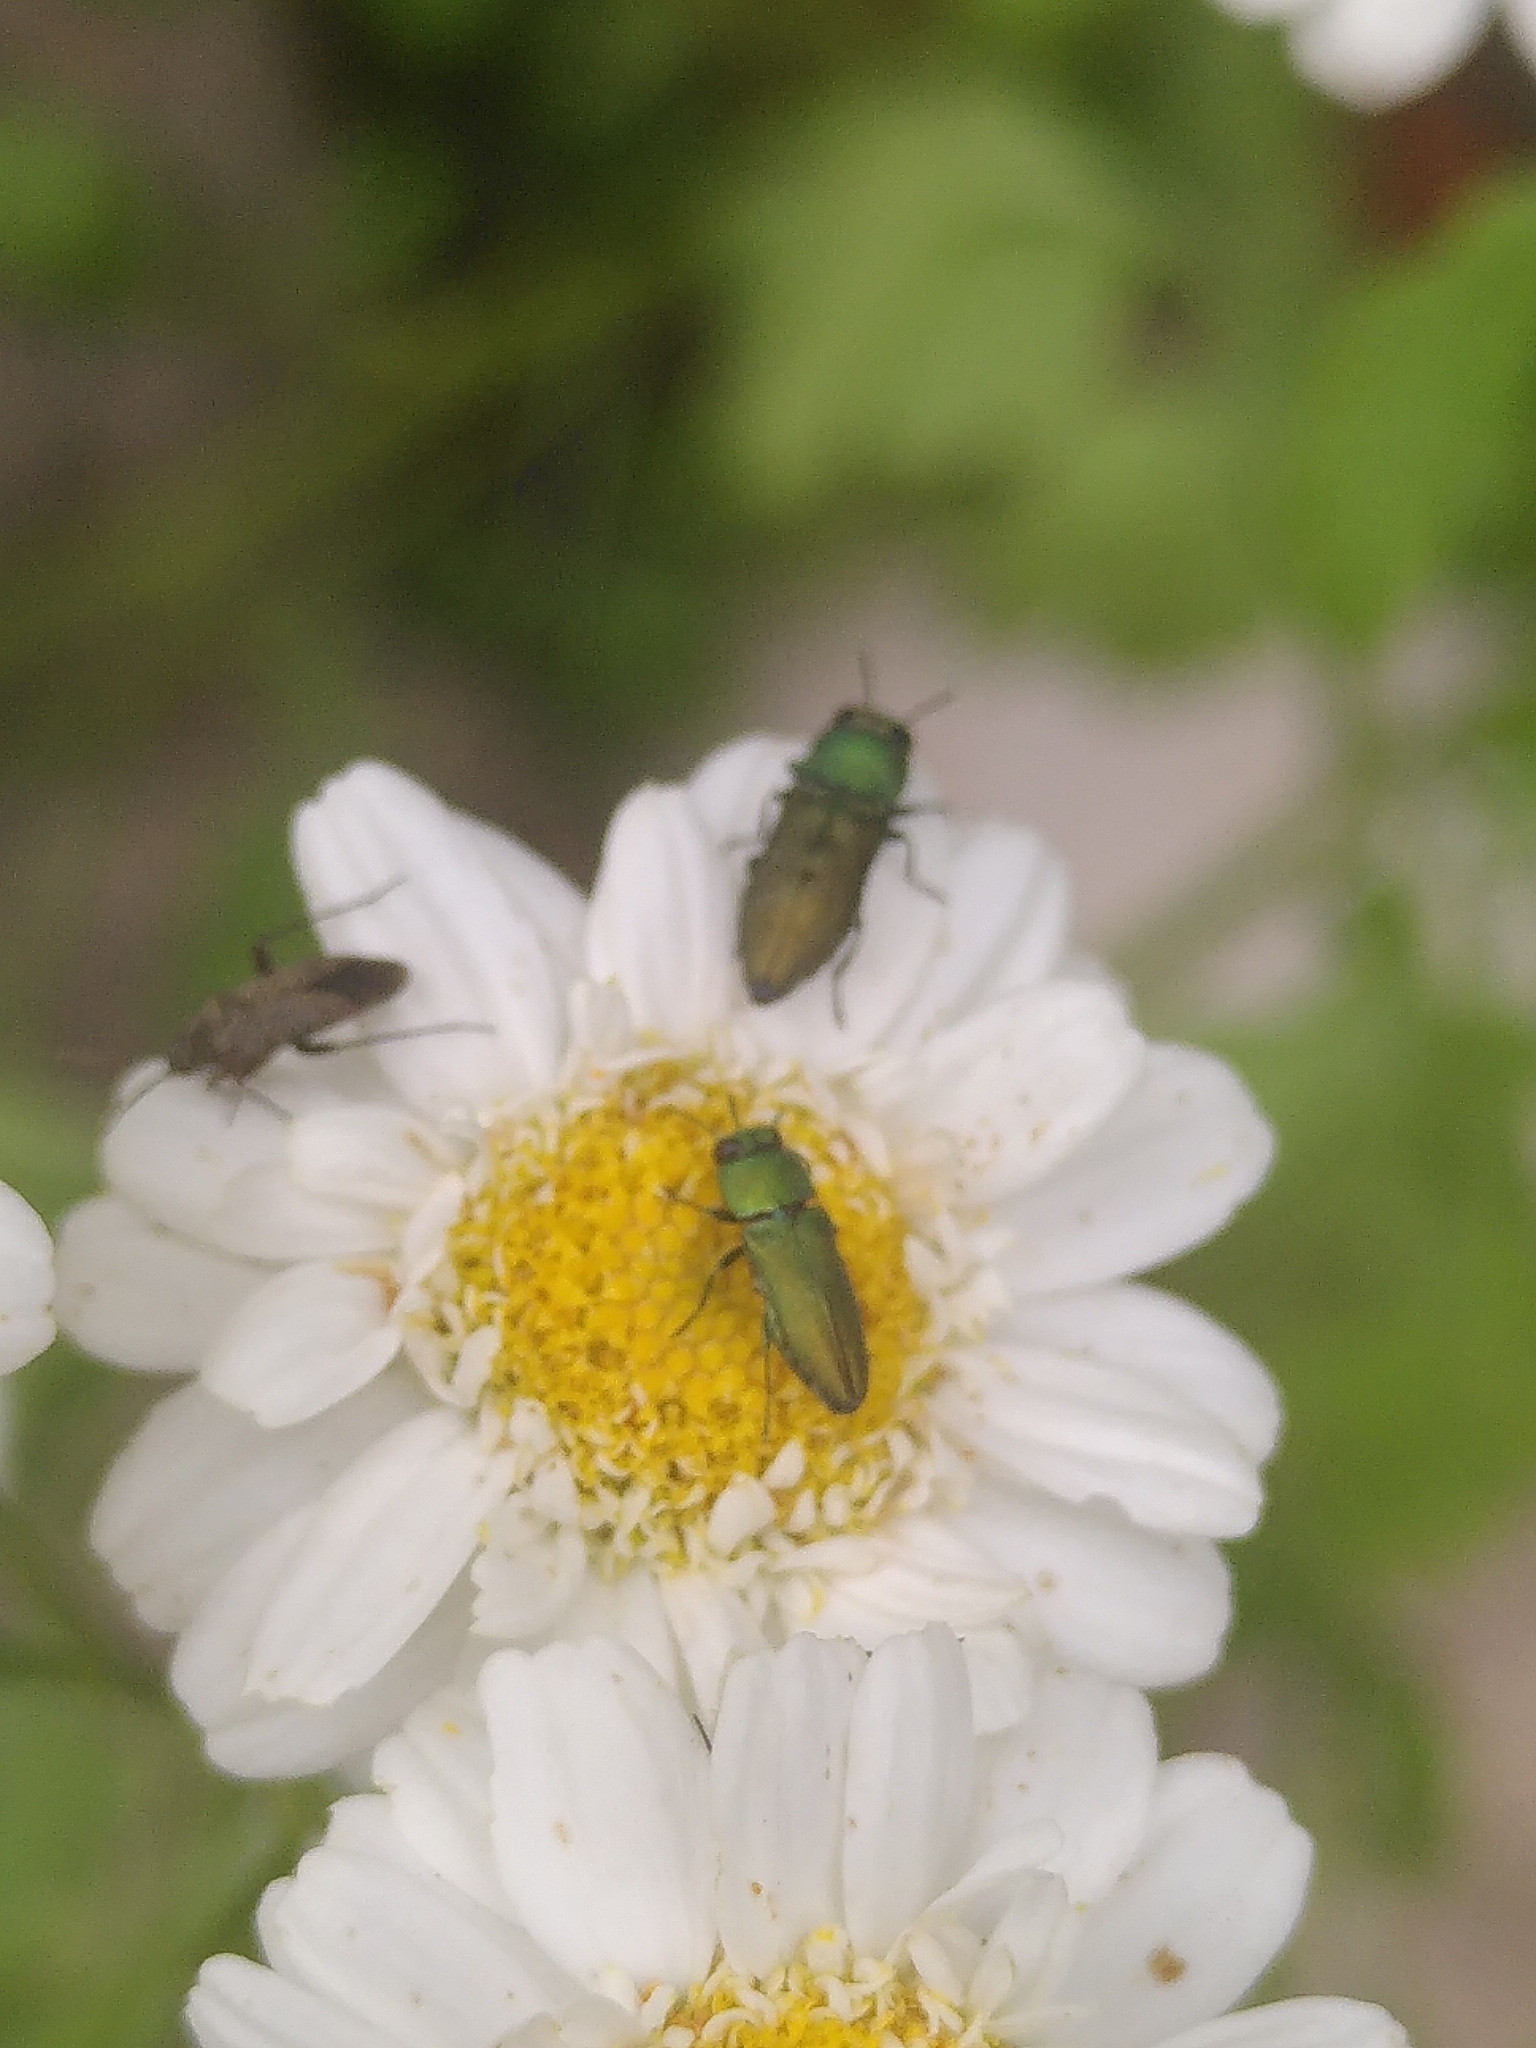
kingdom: Animalia
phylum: Arthropoda
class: Insecta
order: Coleoptera
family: Buprestidae
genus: Anthaxia
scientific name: Anthaxia millefolii
